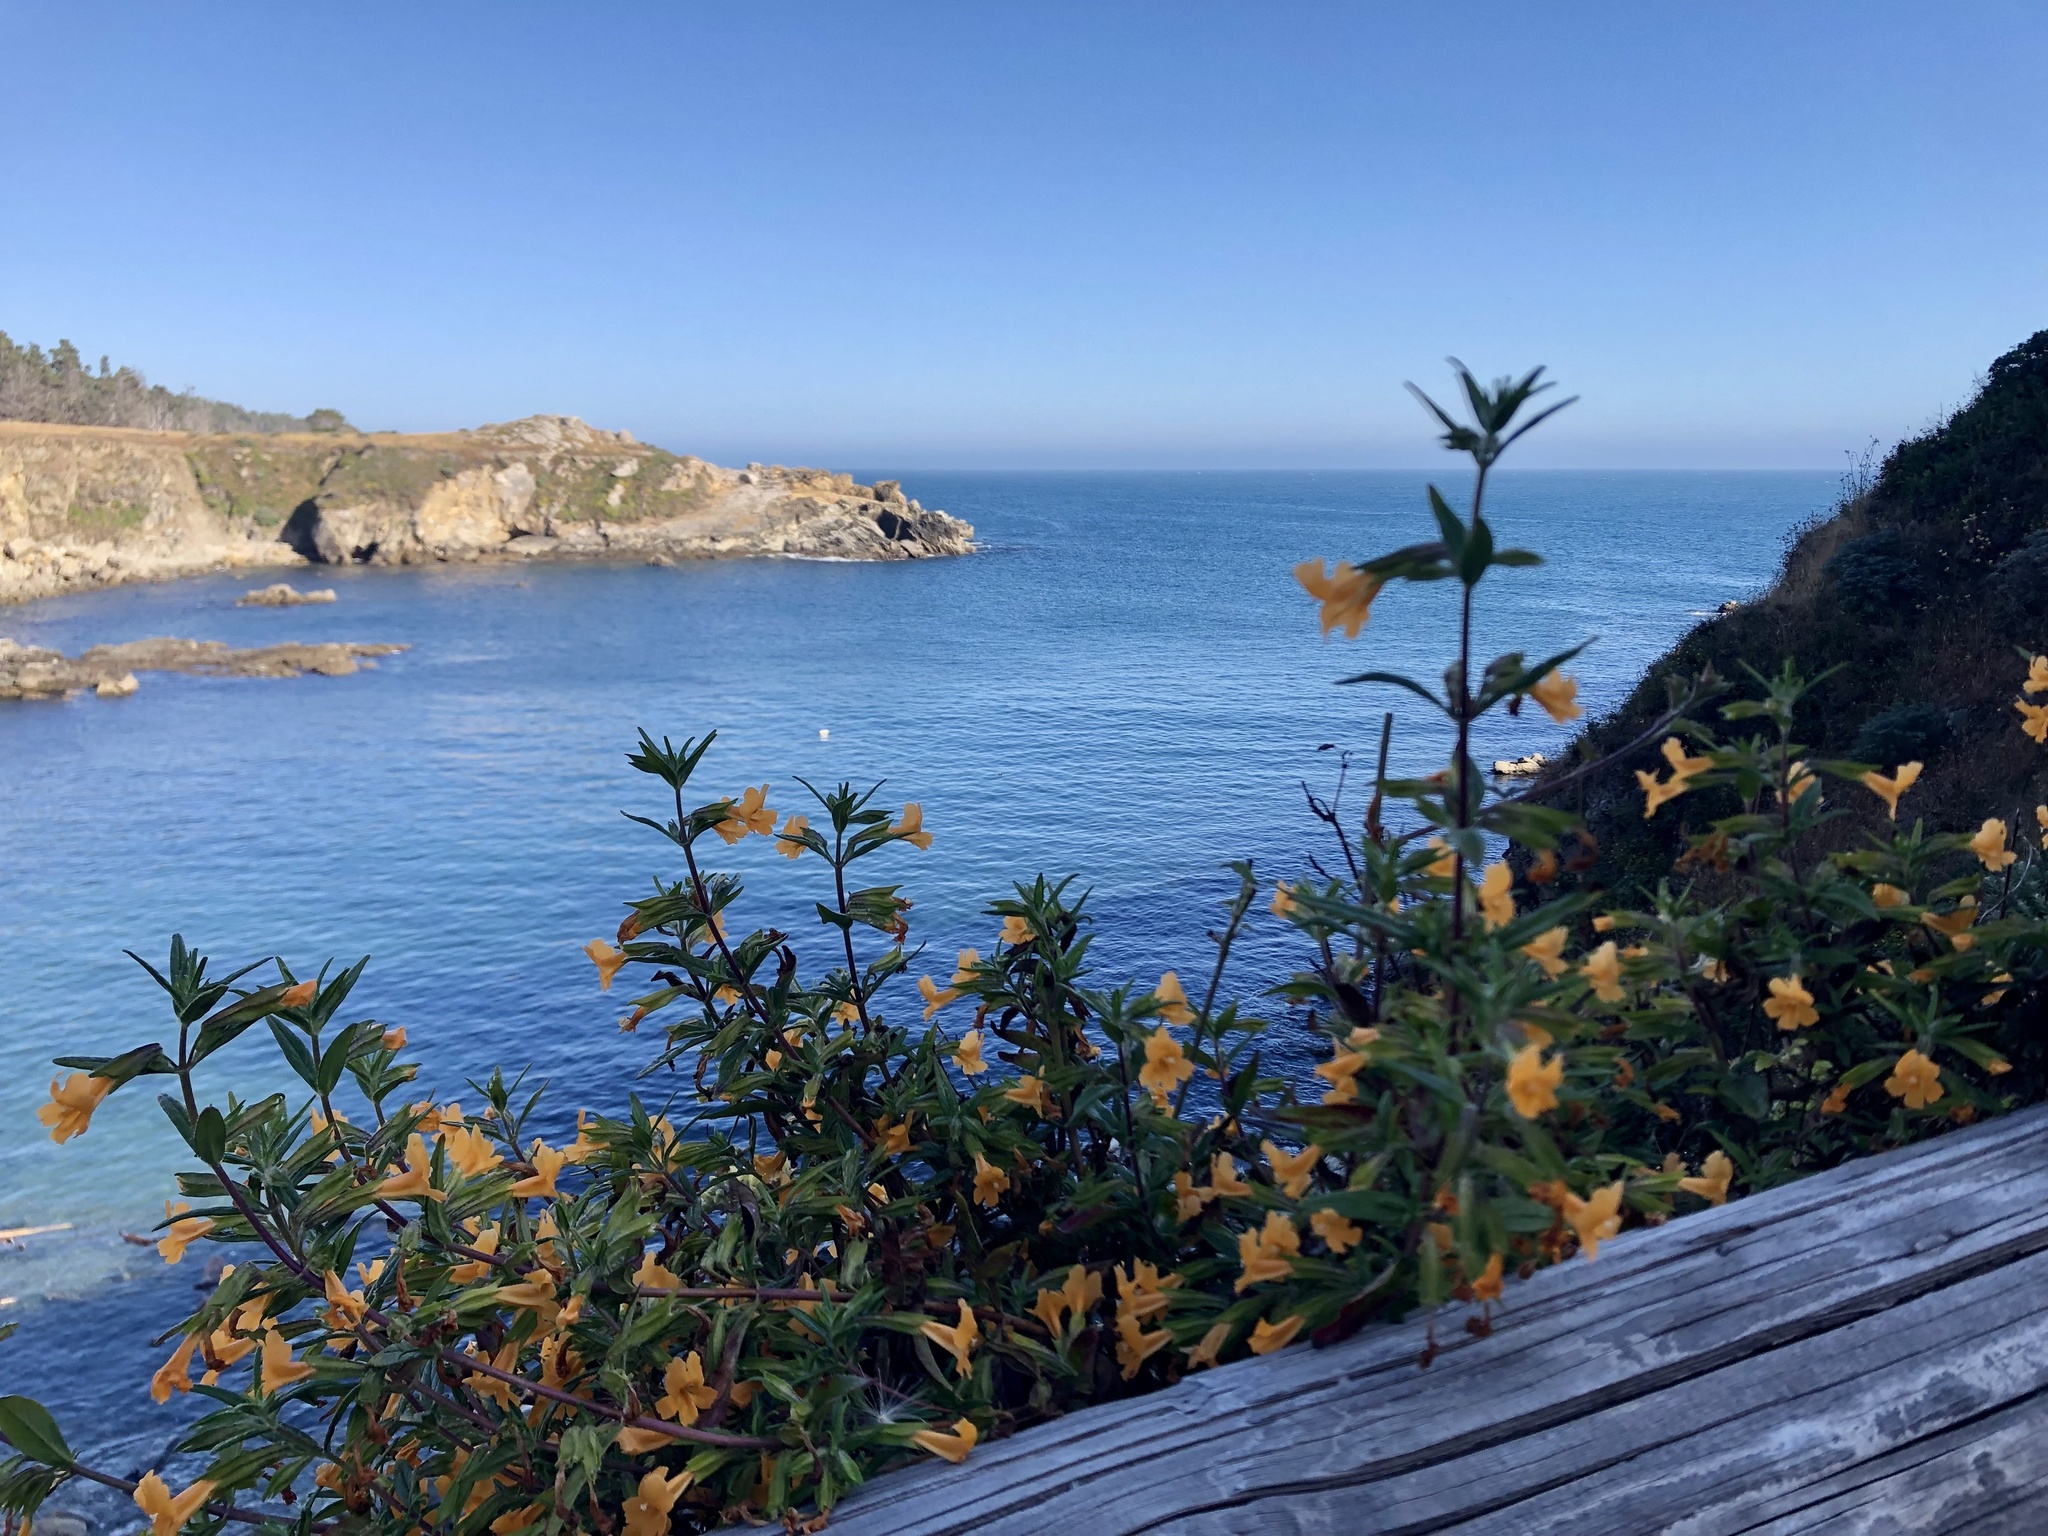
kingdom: Plantae
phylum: Tracheophyta
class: Magnoliopsida
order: Lamiales
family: Phrymaceae
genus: Diplacus
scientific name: Diplacus aurantiacus
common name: Bush monkey-flower
